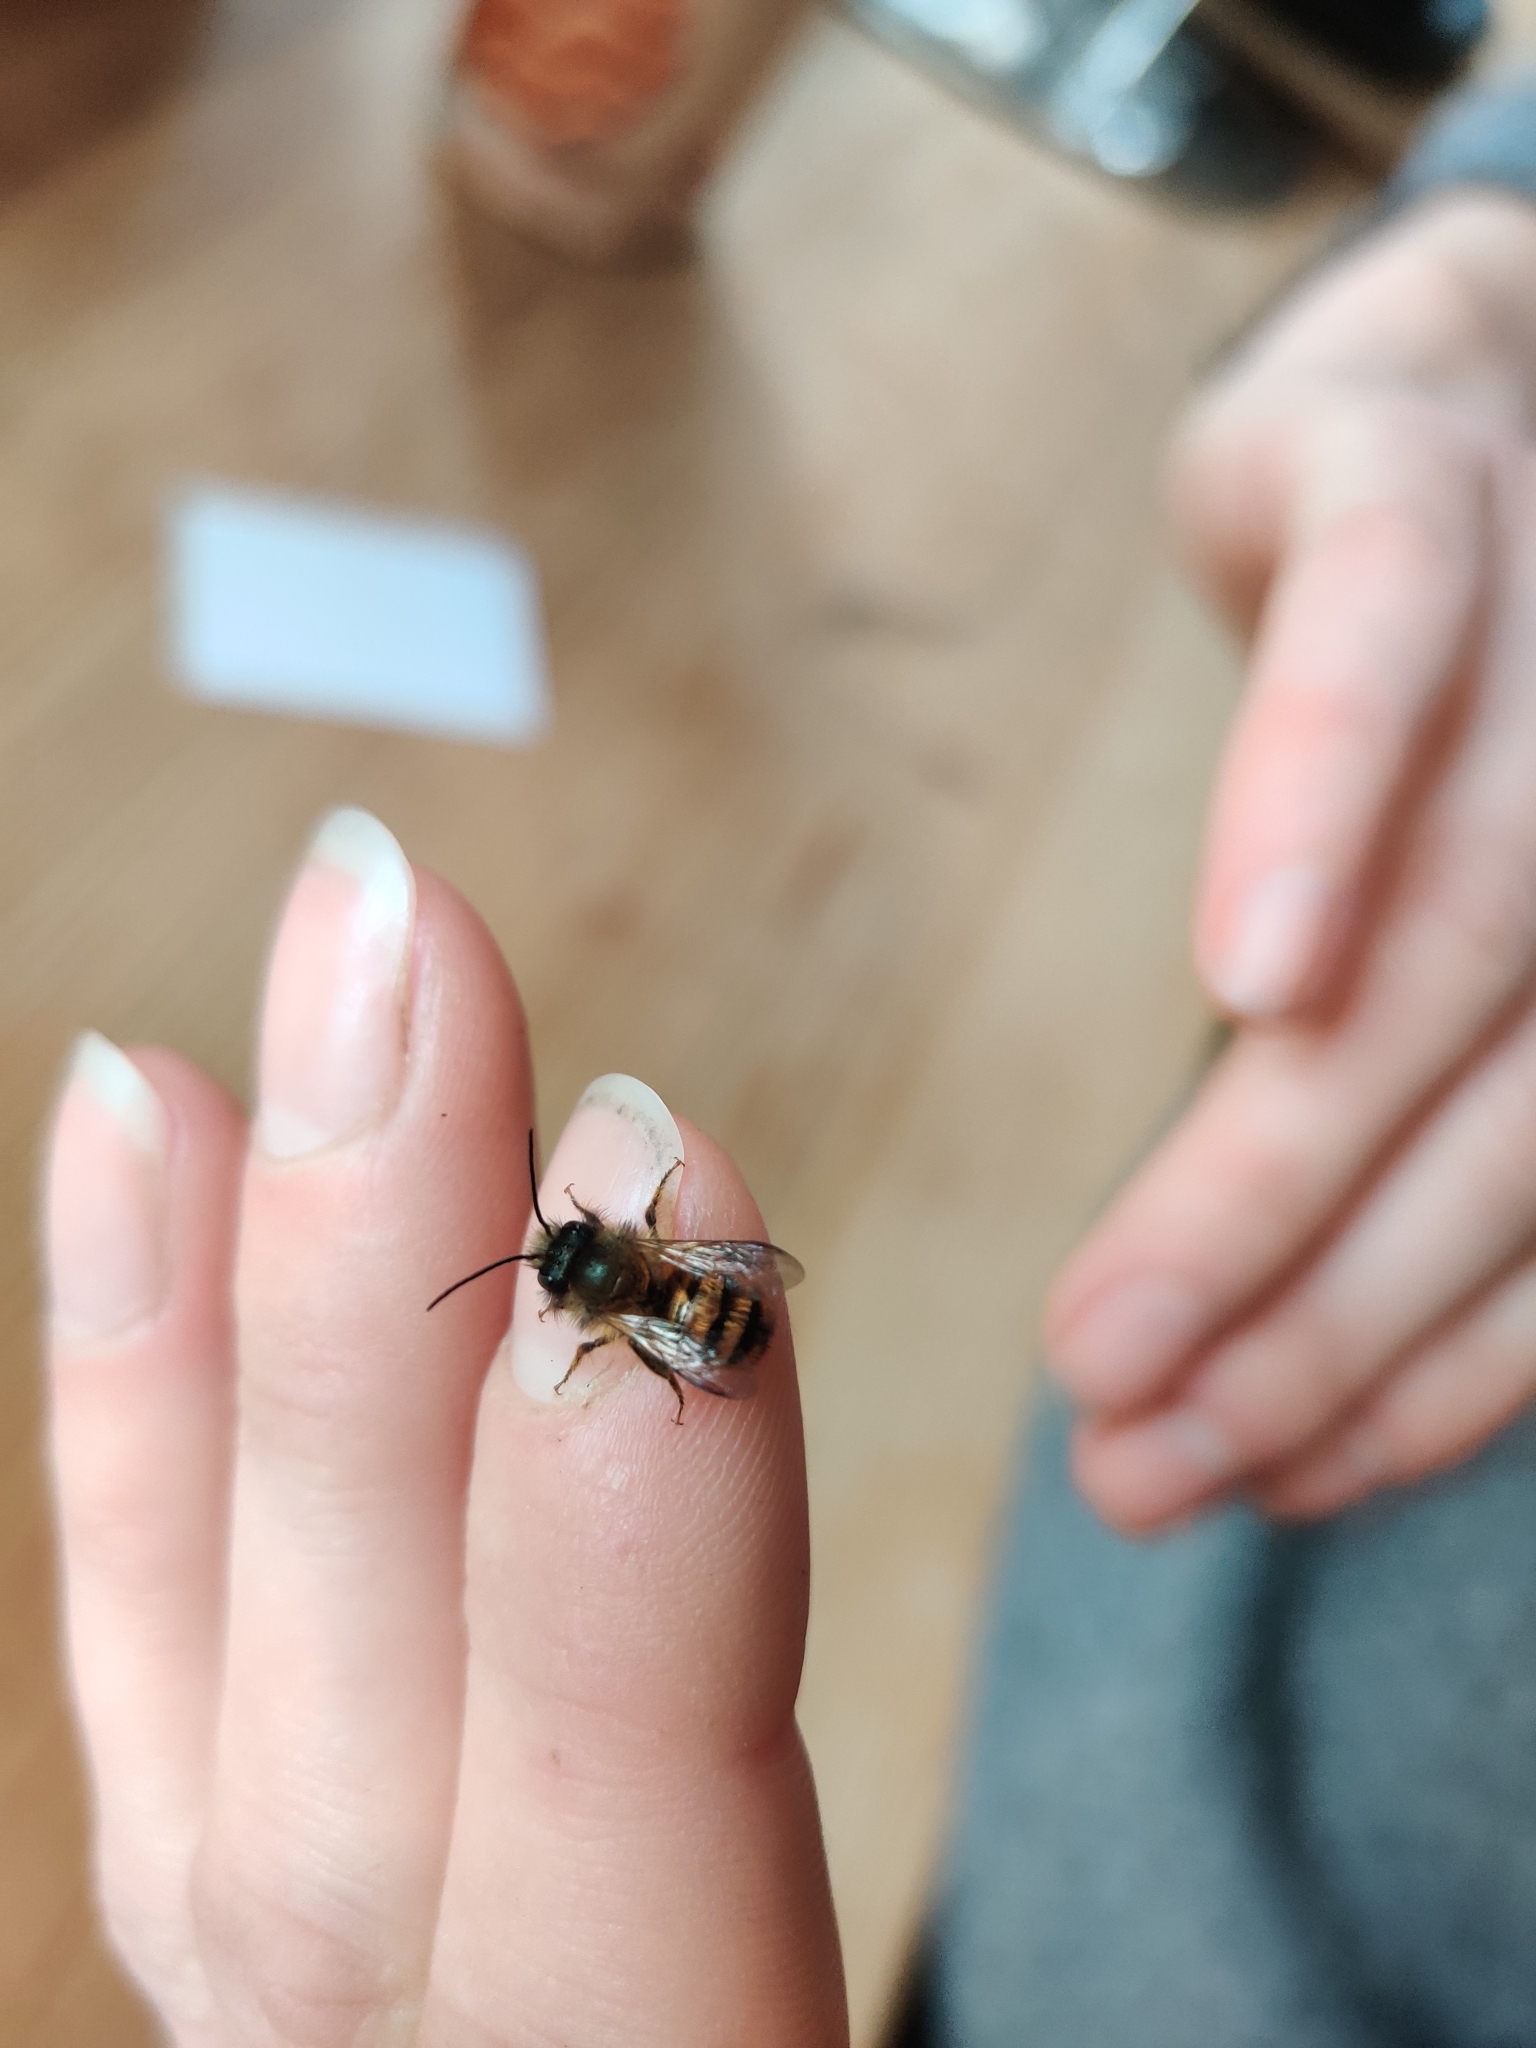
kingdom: Animalia
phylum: Arthropoda
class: Insecta
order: Hymenoptera
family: Megachilidae
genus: Osmia
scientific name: Osmia bicornis
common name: Red mason bee
